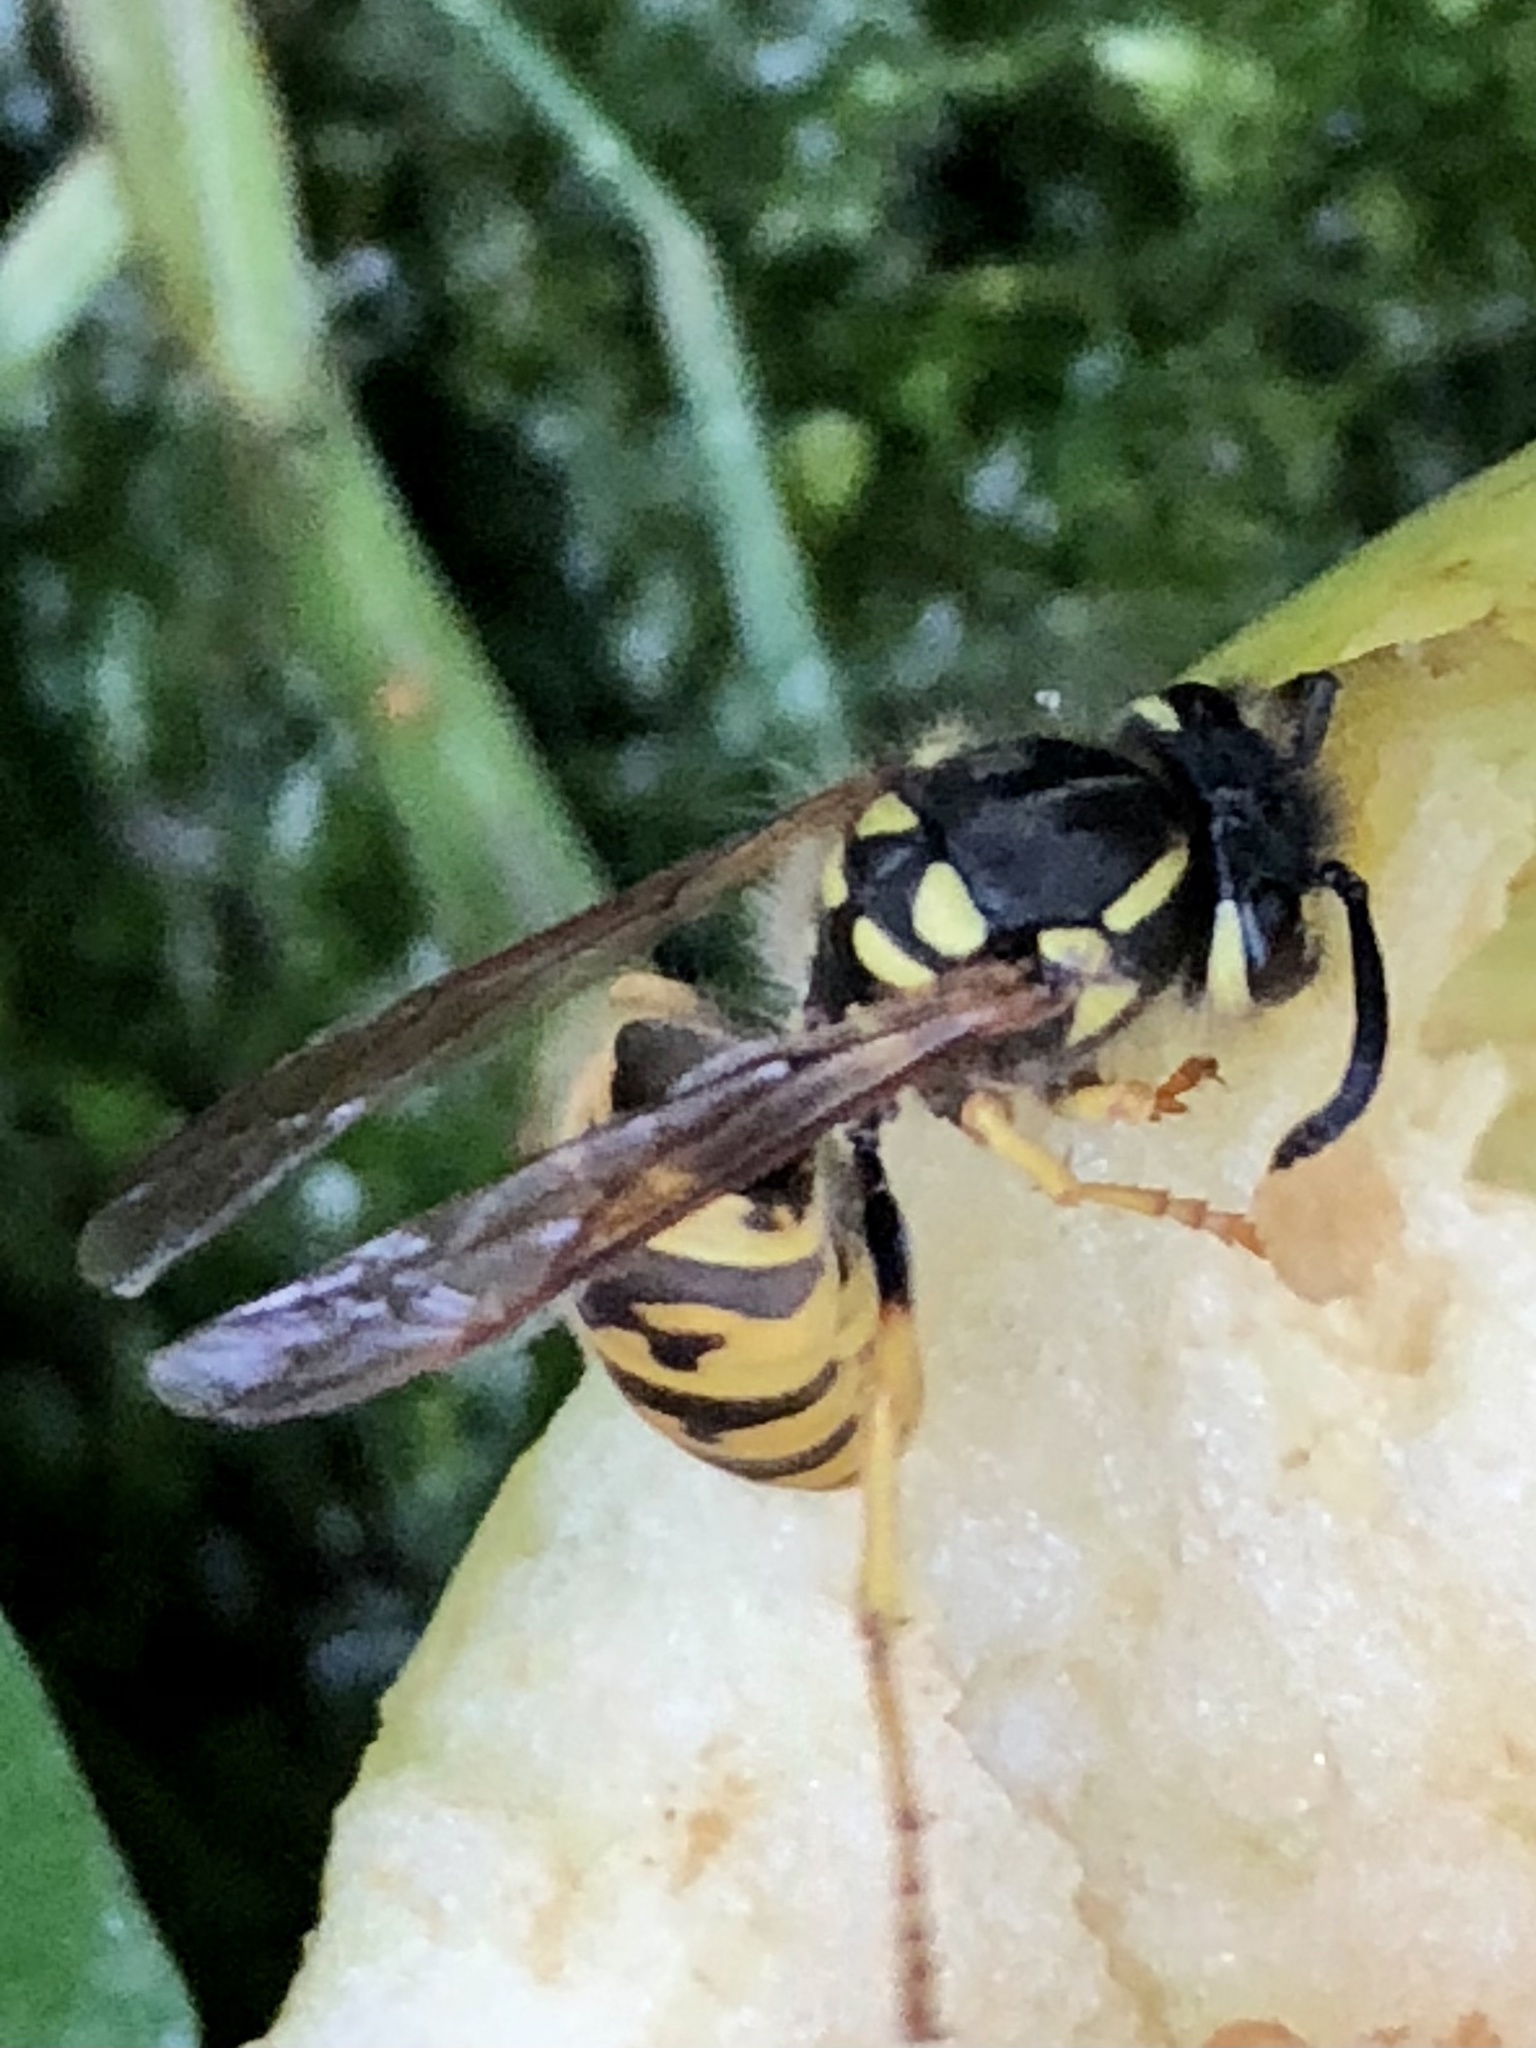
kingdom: Animalia
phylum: Arthropoda
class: Insecta
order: Hymenoptera
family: Vespidae
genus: Vespula
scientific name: Vespula germanica
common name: German wasp
